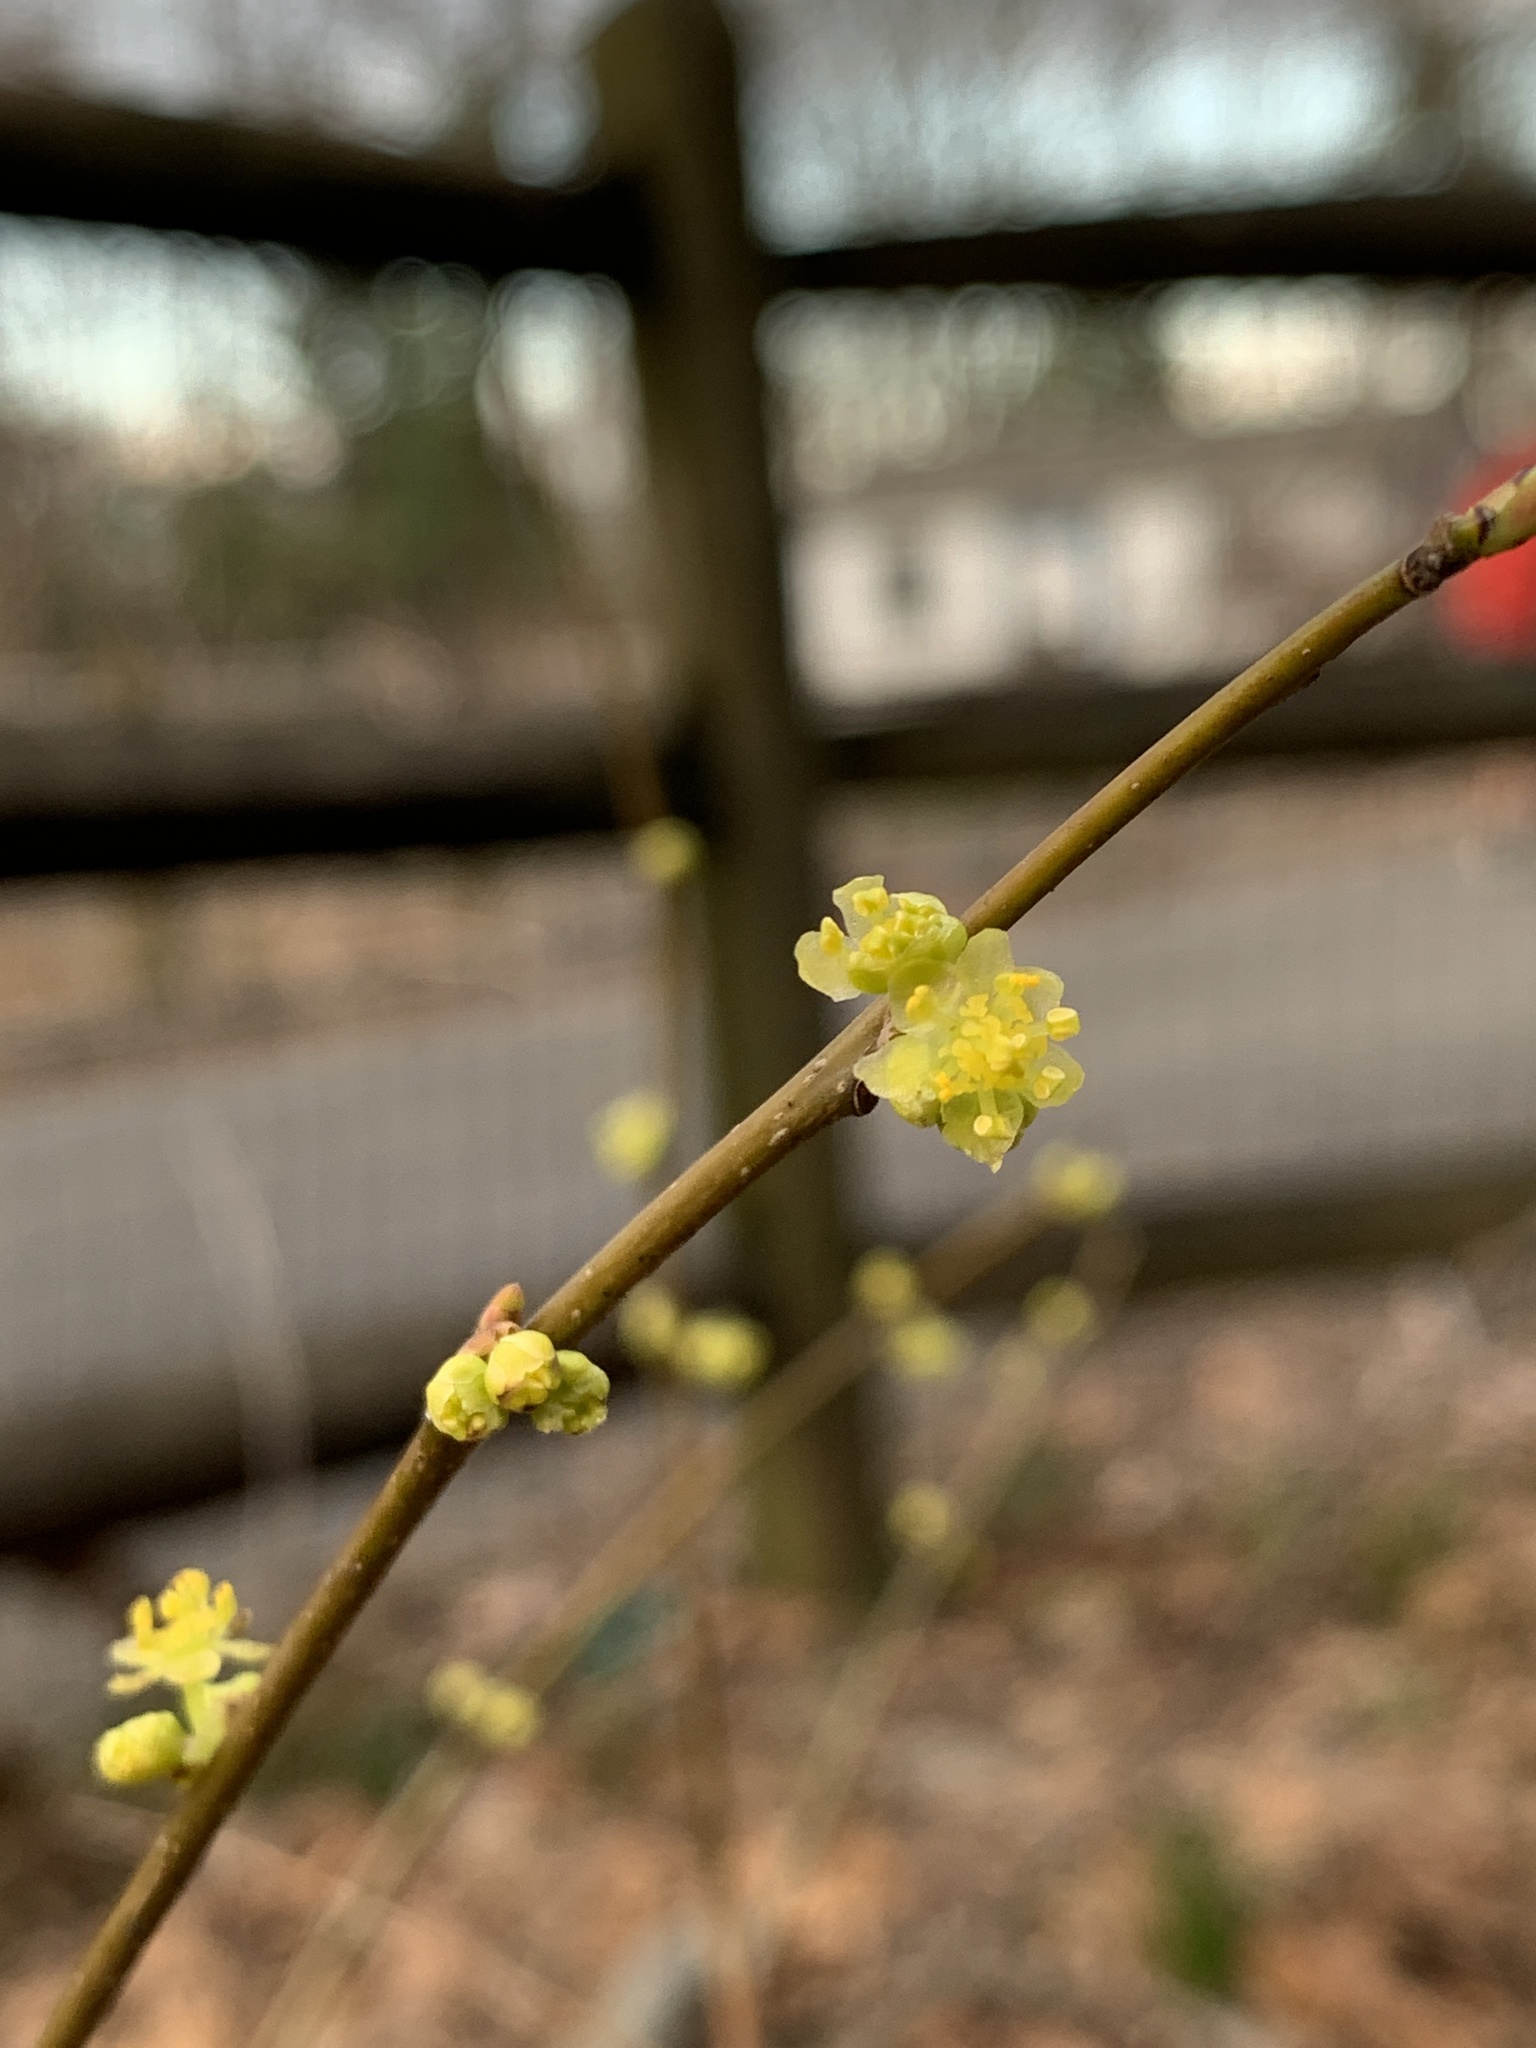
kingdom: Plantae
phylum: Tracheophyta
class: Magnoliopsida
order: Laurales
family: Lauraceae
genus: Lindera
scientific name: Lindera benzoin
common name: Spicebush
